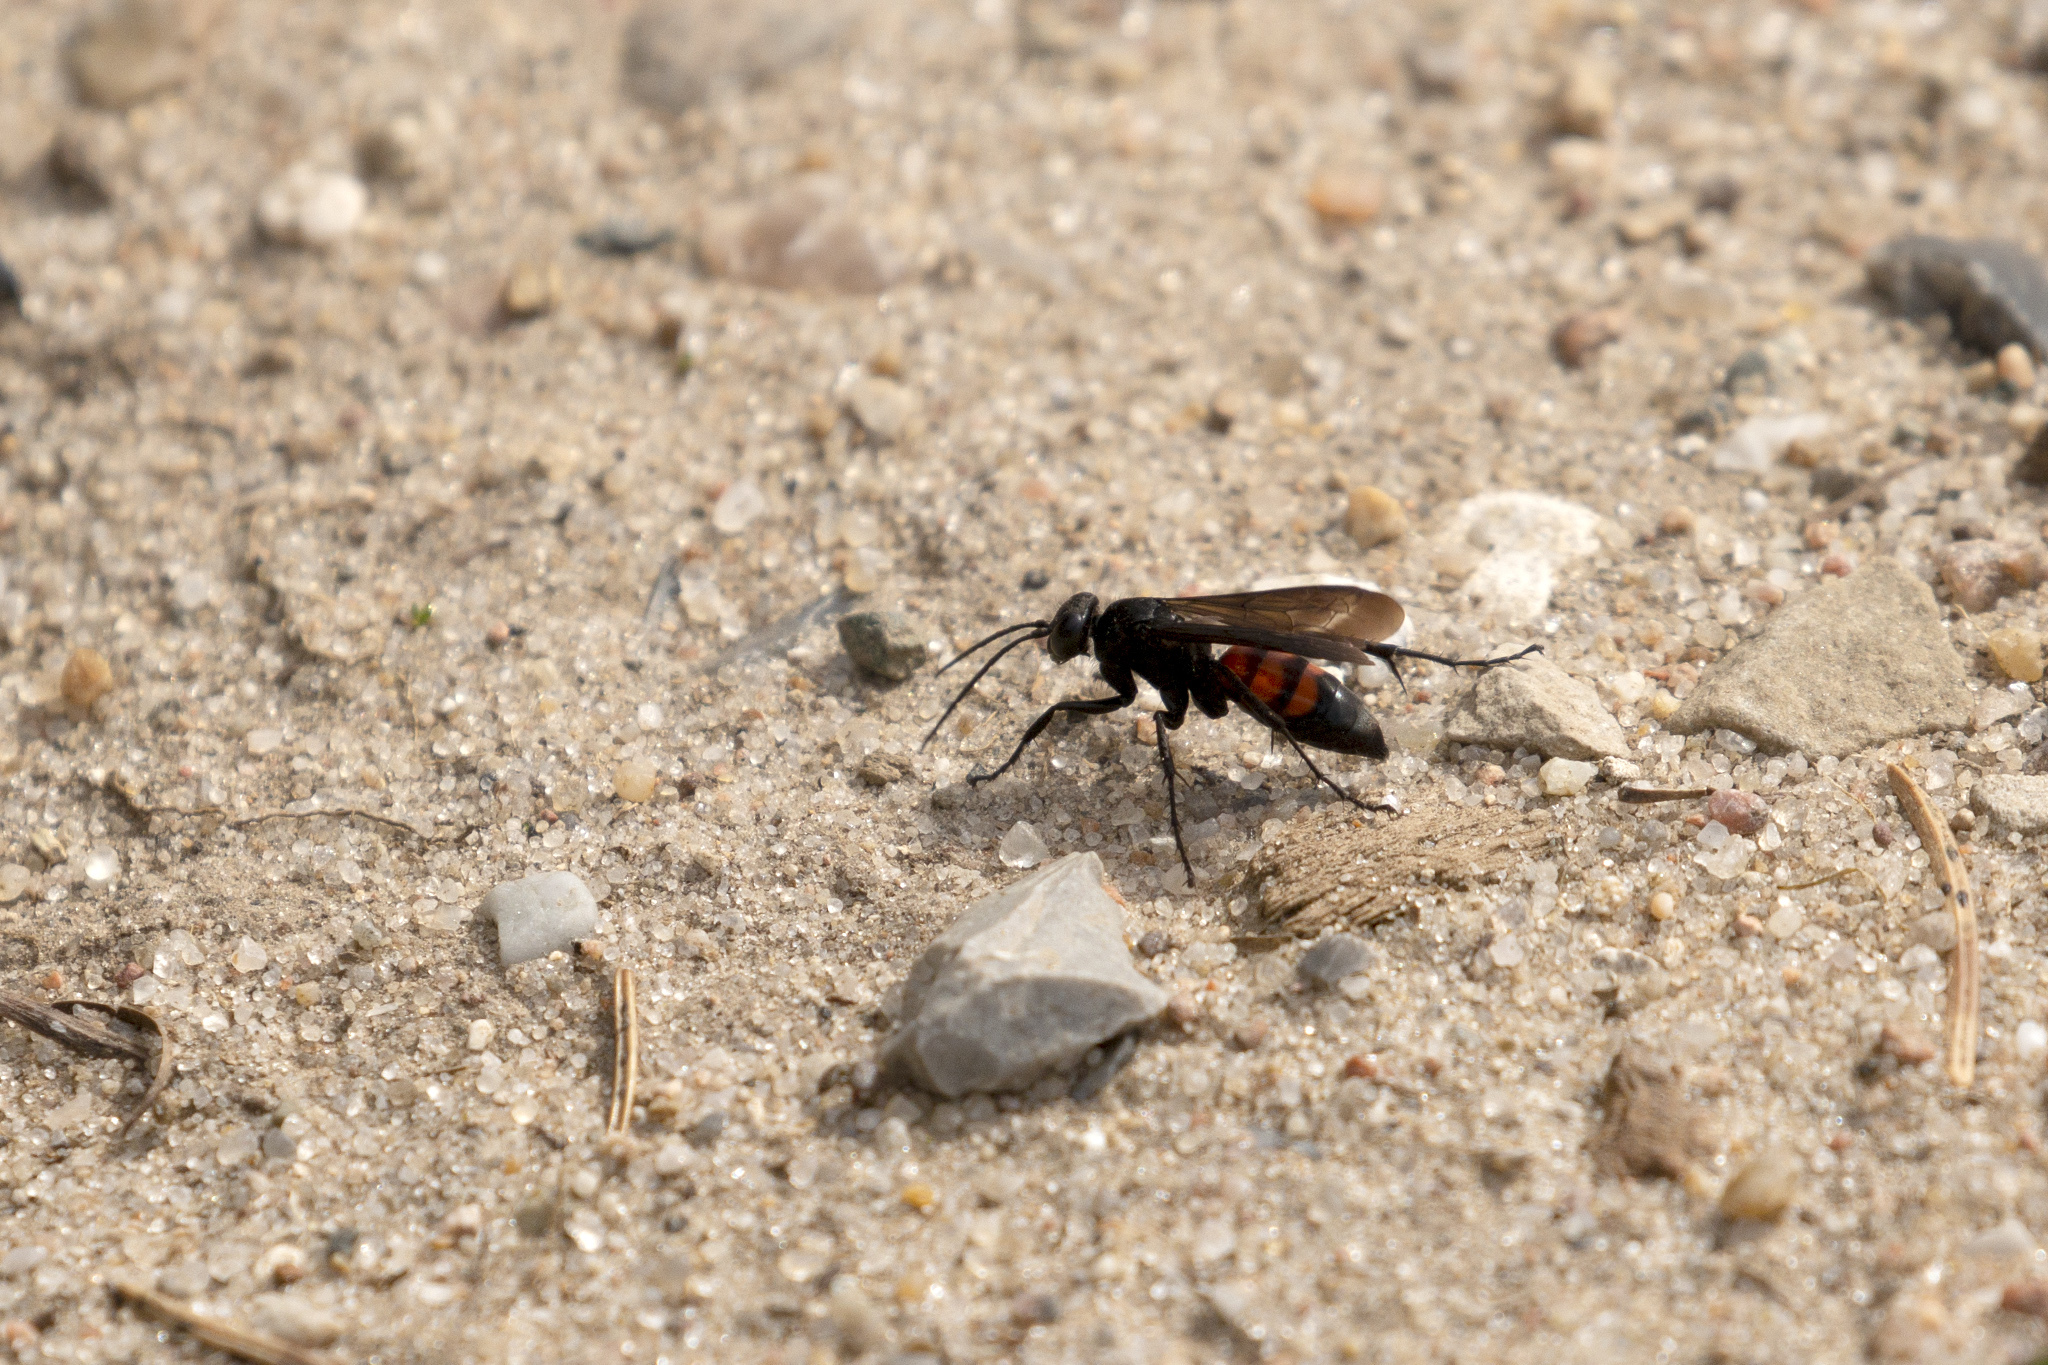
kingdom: Animalia
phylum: Arthropoda
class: Insecta
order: Hymenoptera
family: Pompilidae
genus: Anoplius
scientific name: Anoplius viaticus
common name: Black banded spider wasp
